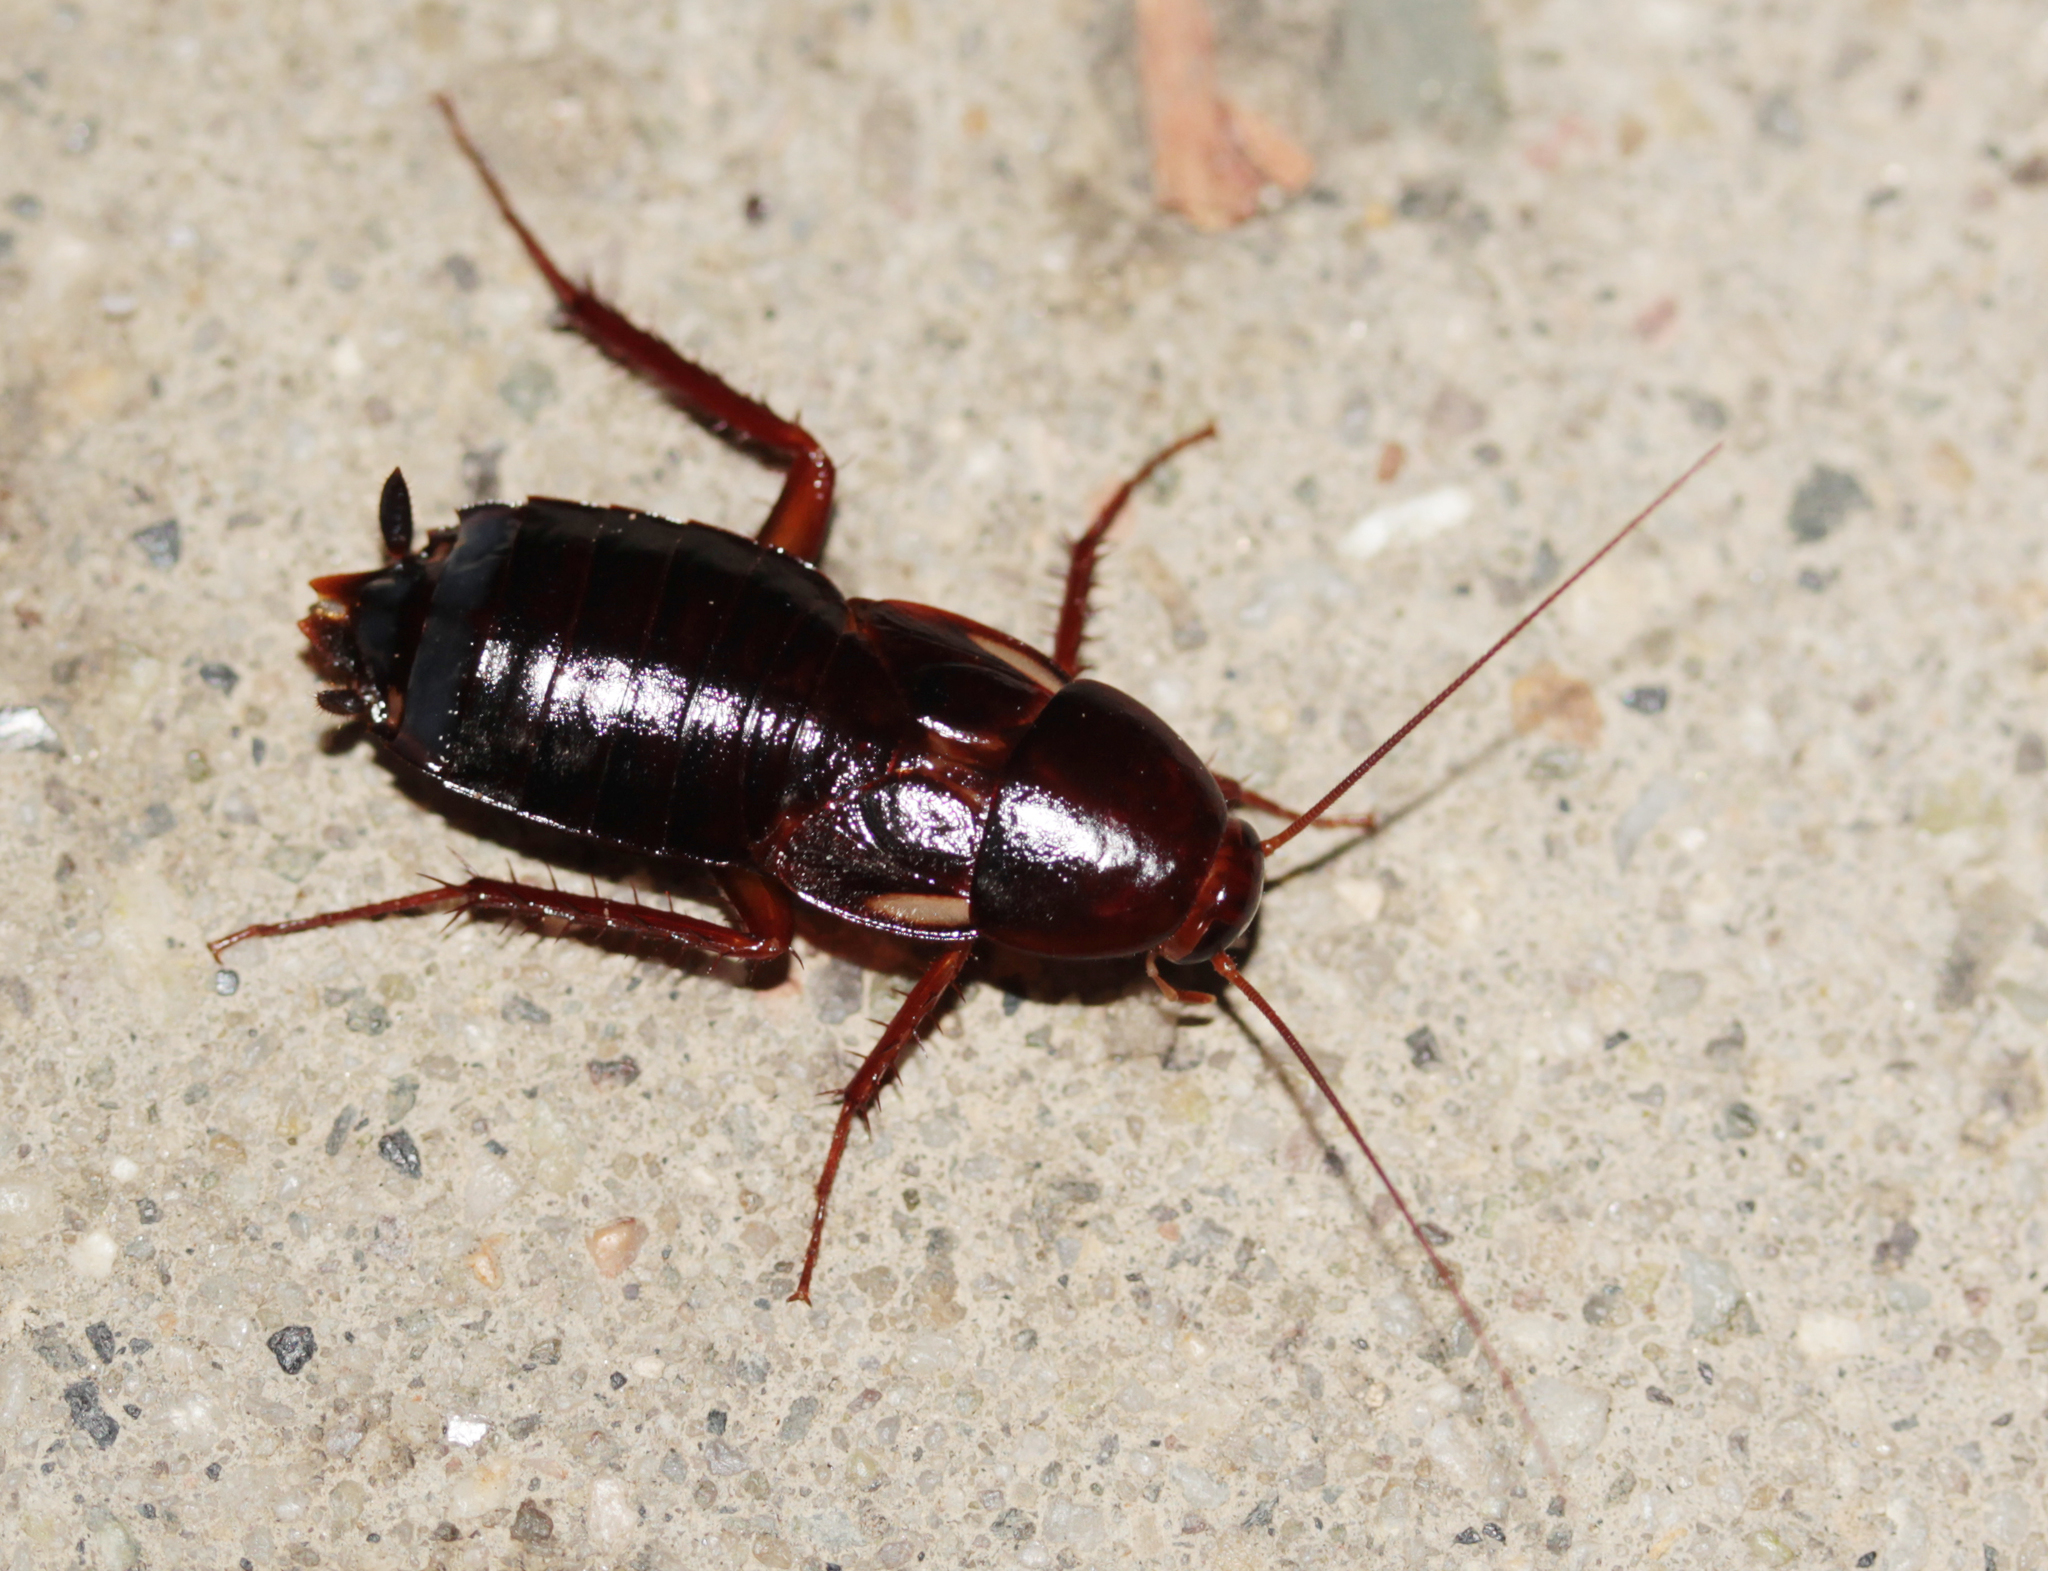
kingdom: Animalia
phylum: Arthropoda
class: Insecta
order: Blattodea
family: Blattidae
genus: Periplaneta
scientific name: Periplaneta lateralis
